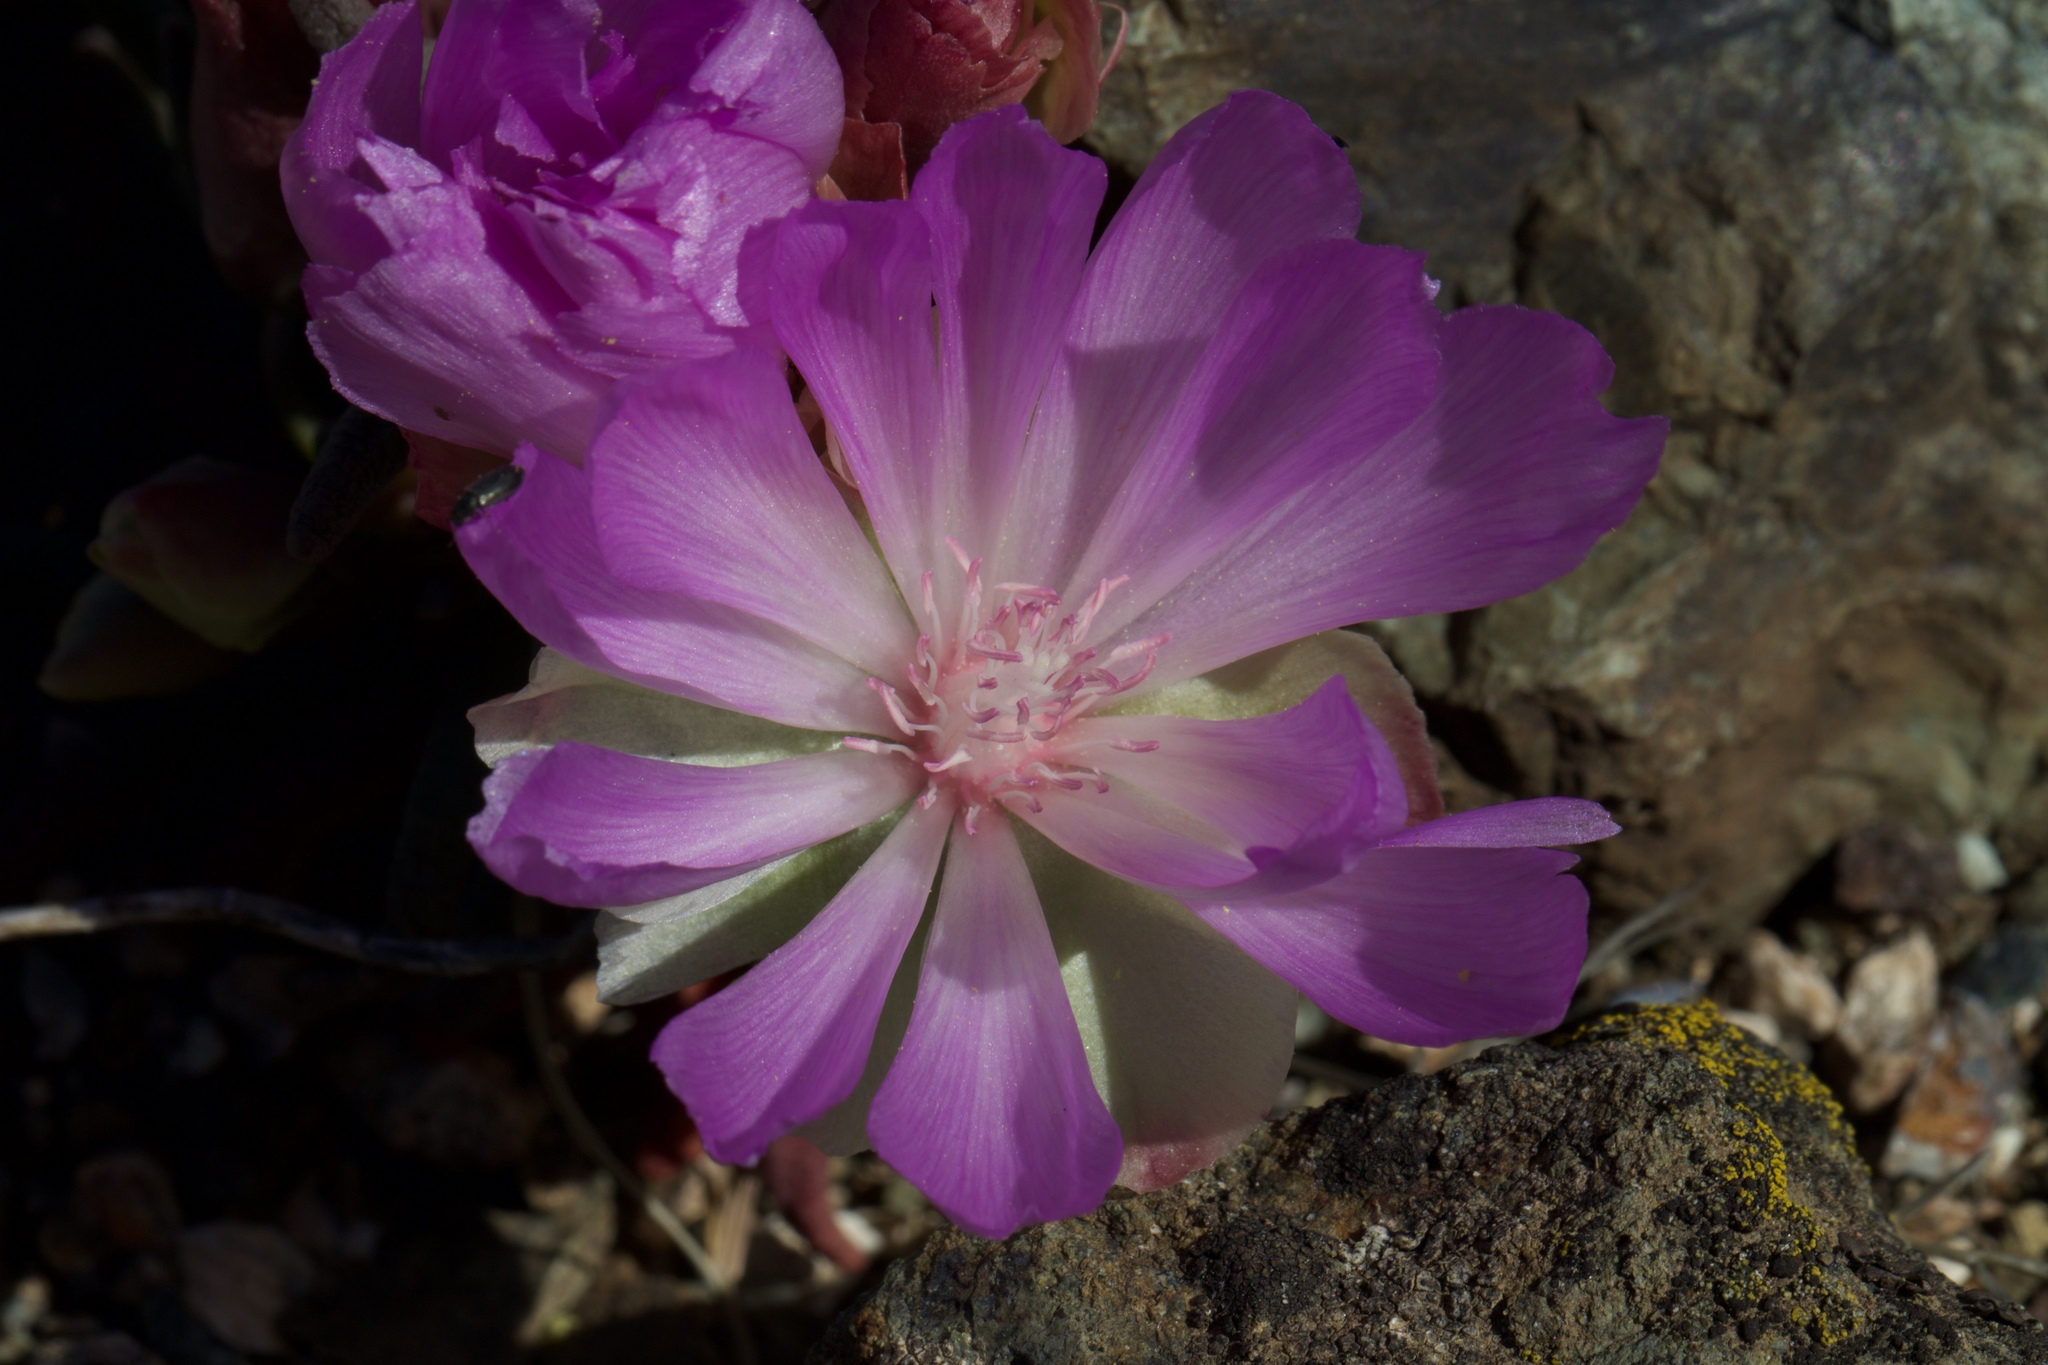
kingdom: Plantae
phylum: Tracheophyta
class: Magnoliopsida
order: Caryophyllales
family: Montiaceae
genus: Lewisia
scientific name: Lewisia rediviva
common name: Bitter-root
